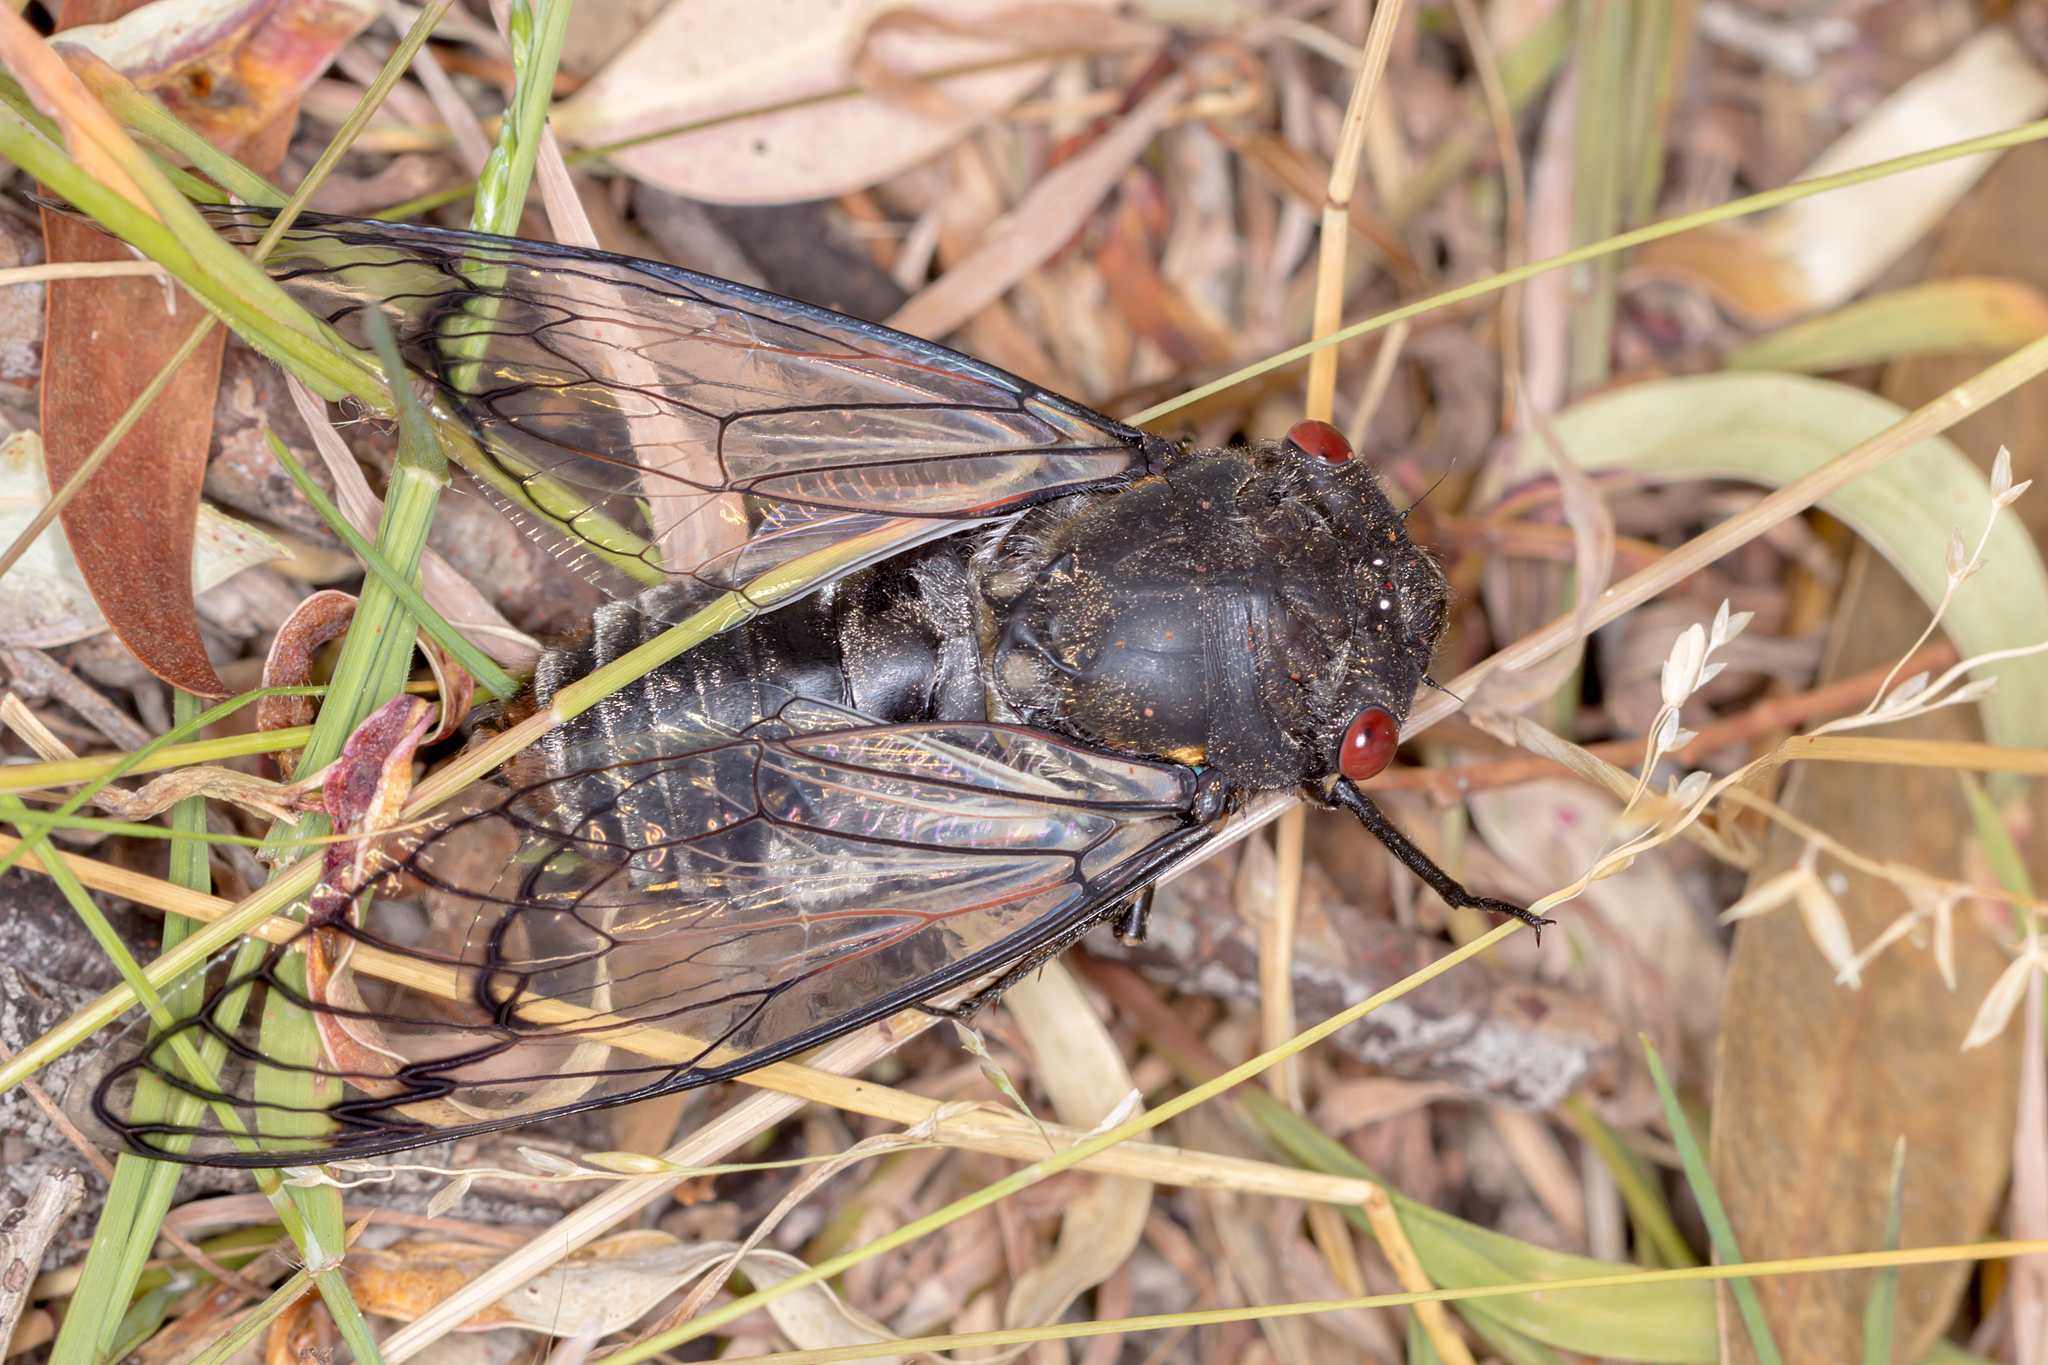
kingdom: Animalia
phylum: Arthropoda
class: Insecta
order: Hemiptera
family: Cicadidae
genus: Psaltoda
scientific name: Psaltoda moerens
